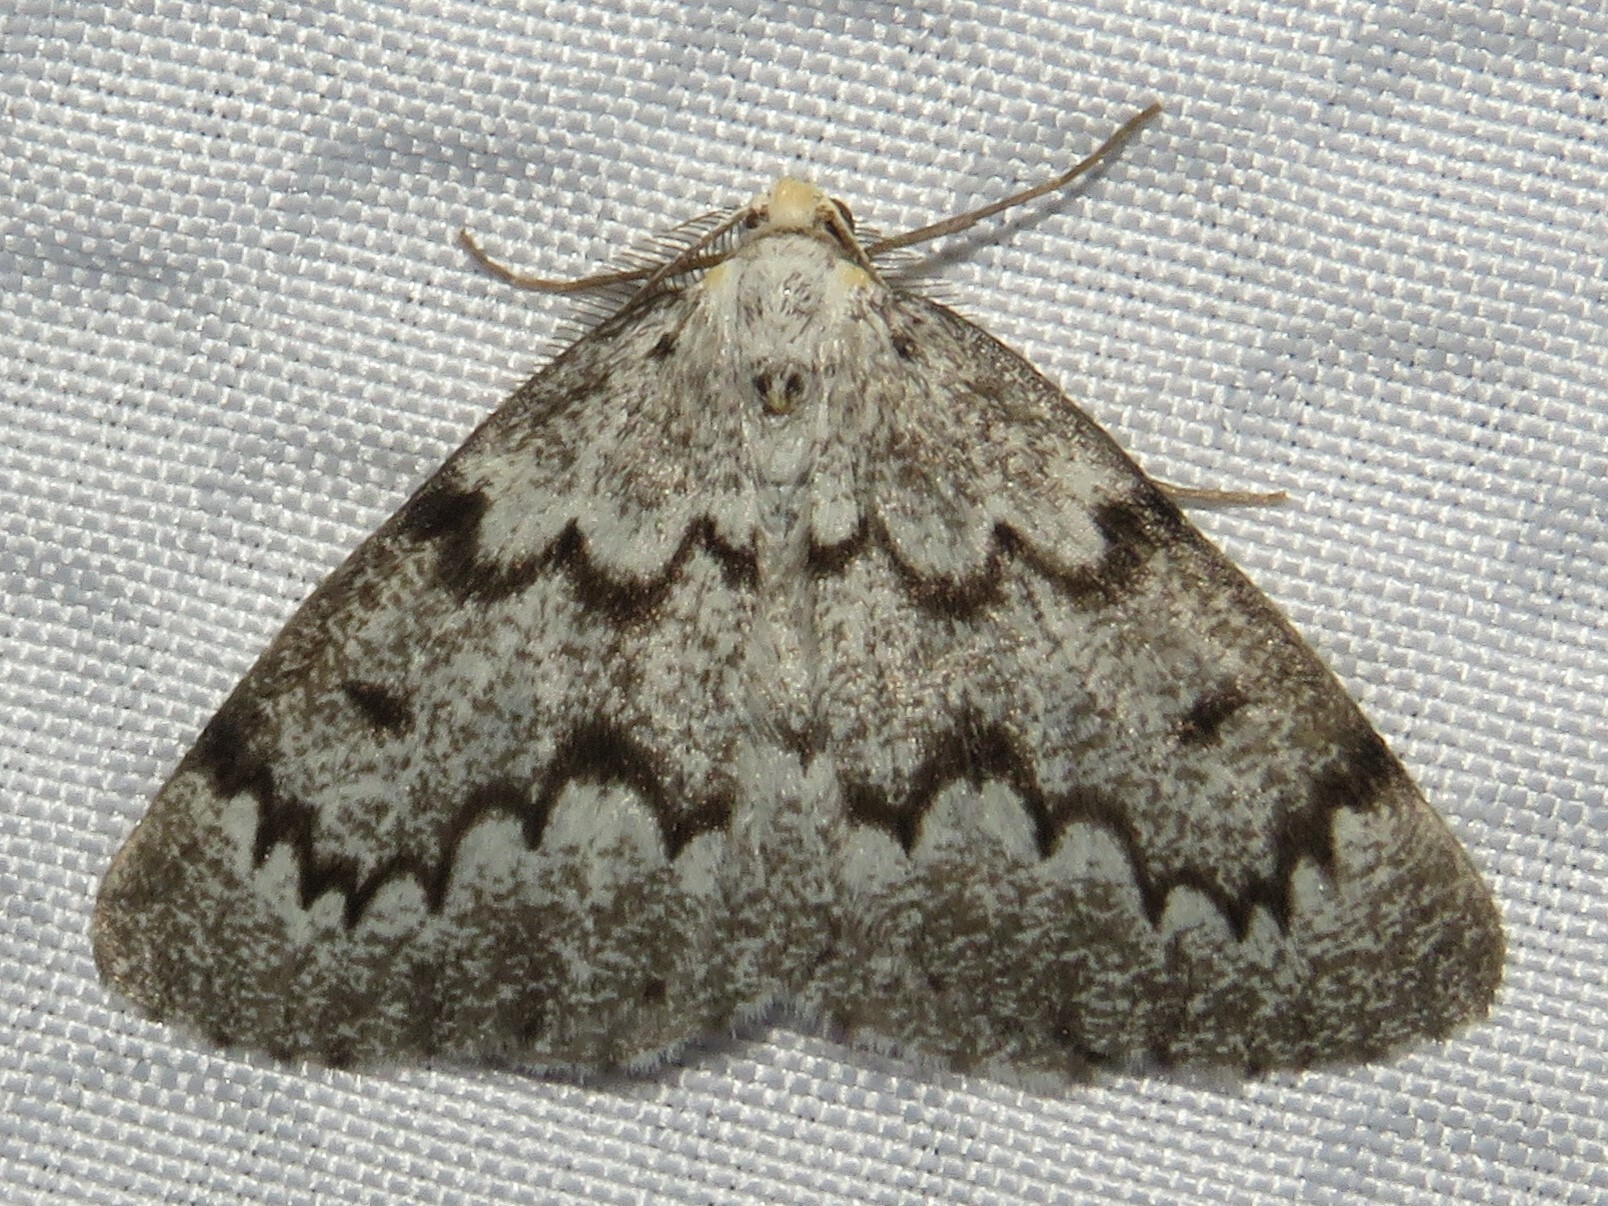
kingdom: Animalia
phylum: Arthropoda
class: Insecta
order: Lepidoptera
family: Geometridae
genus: Nepytia
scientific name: Nepytia canosaria
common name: False hemlock looper
